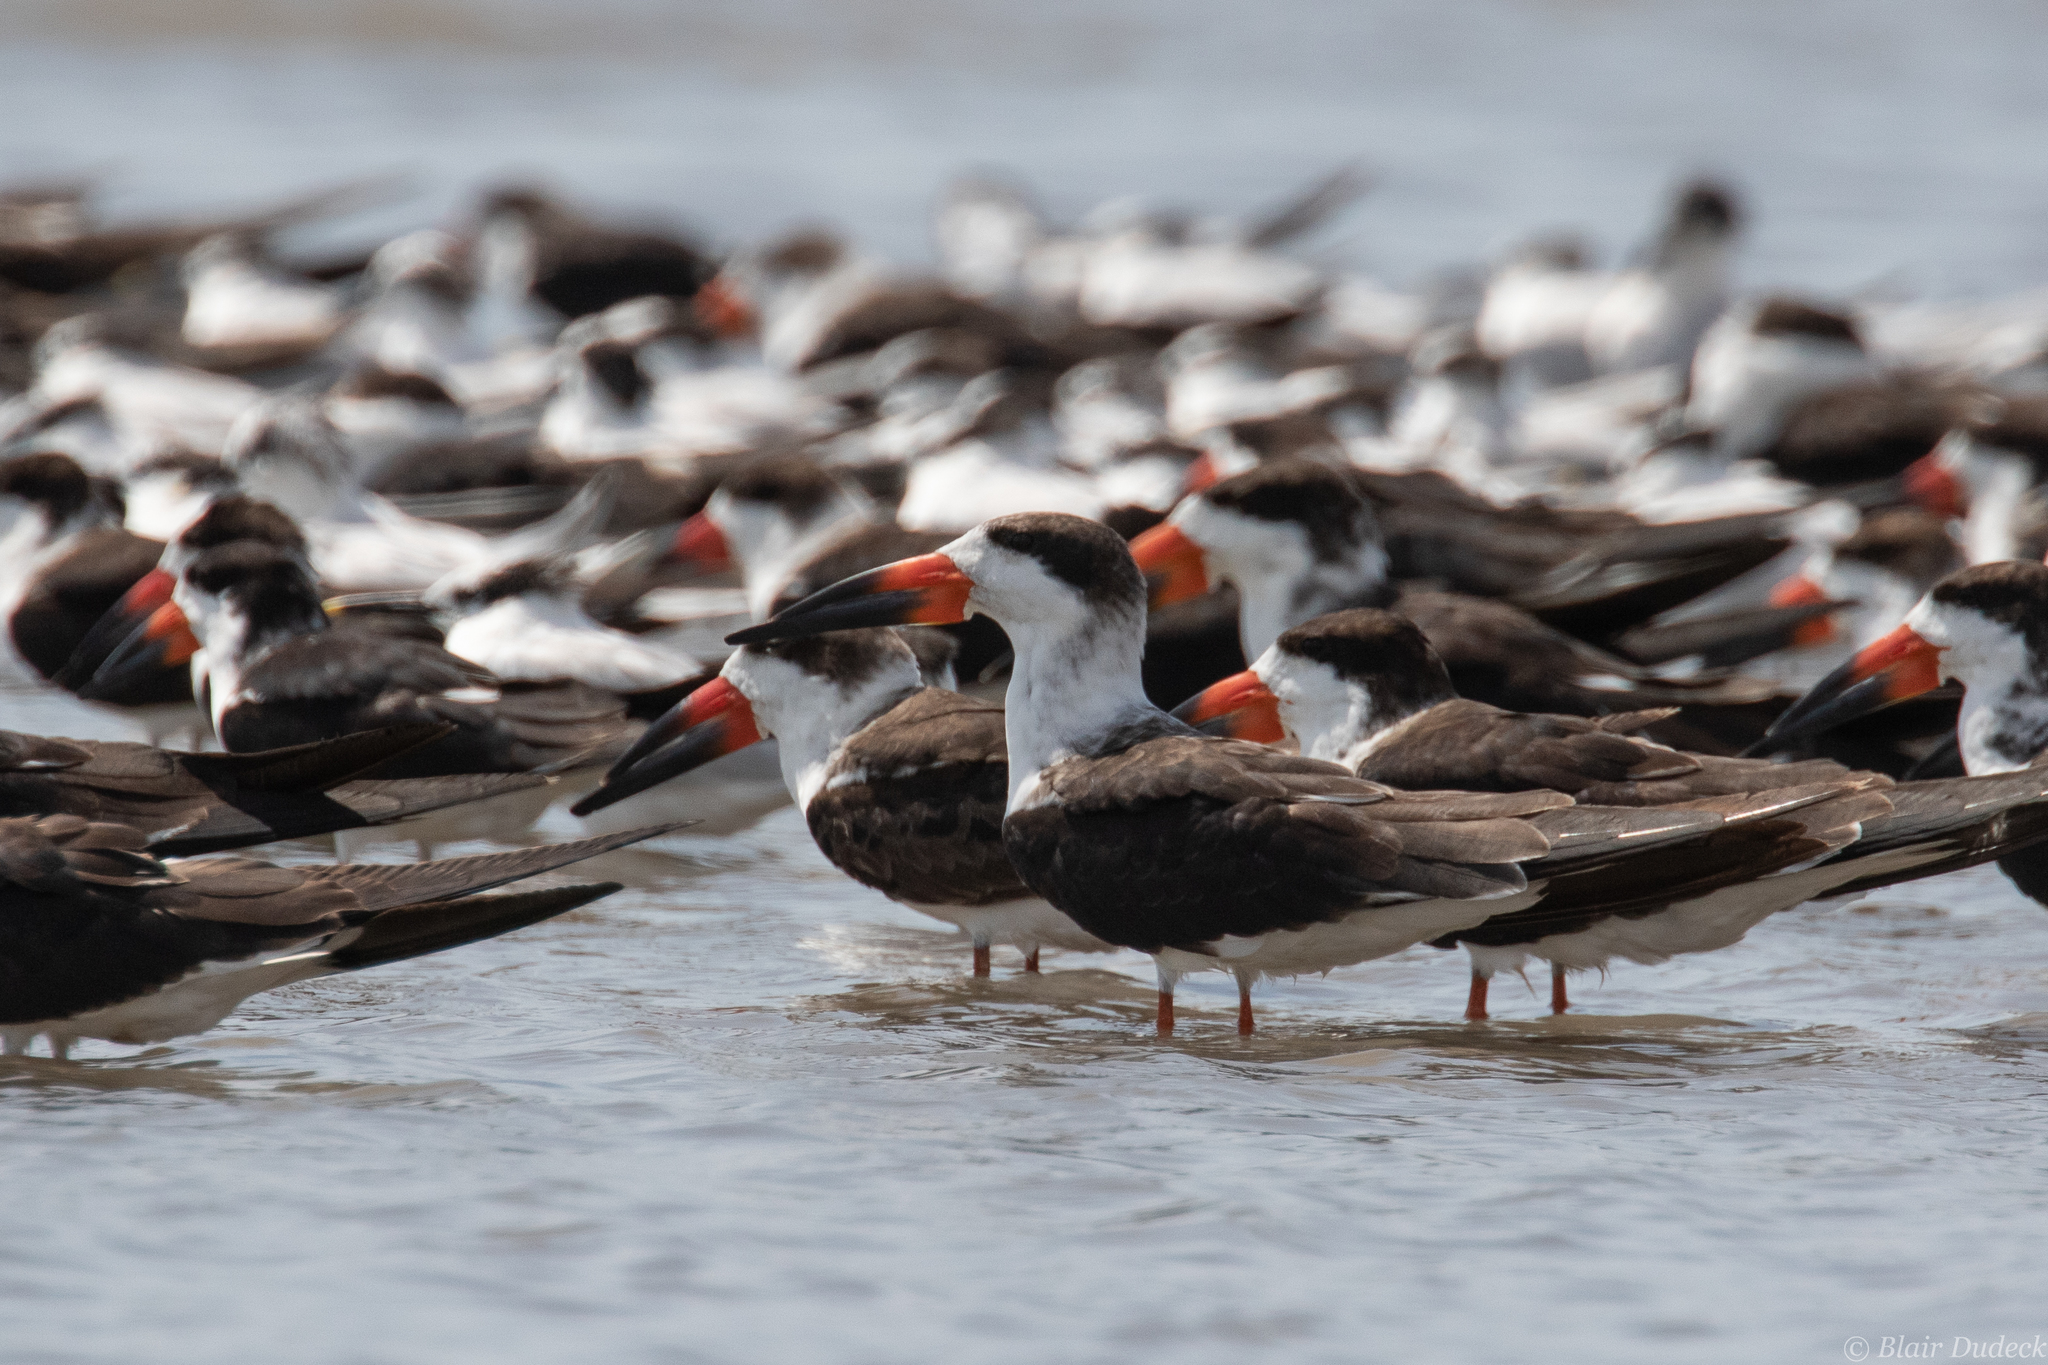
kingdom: Animalia
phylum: Chordata
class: Aves
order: Charadriiformes
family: Laridae
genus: Rynchops
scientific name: Rynchops niger
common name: Black skimmer
